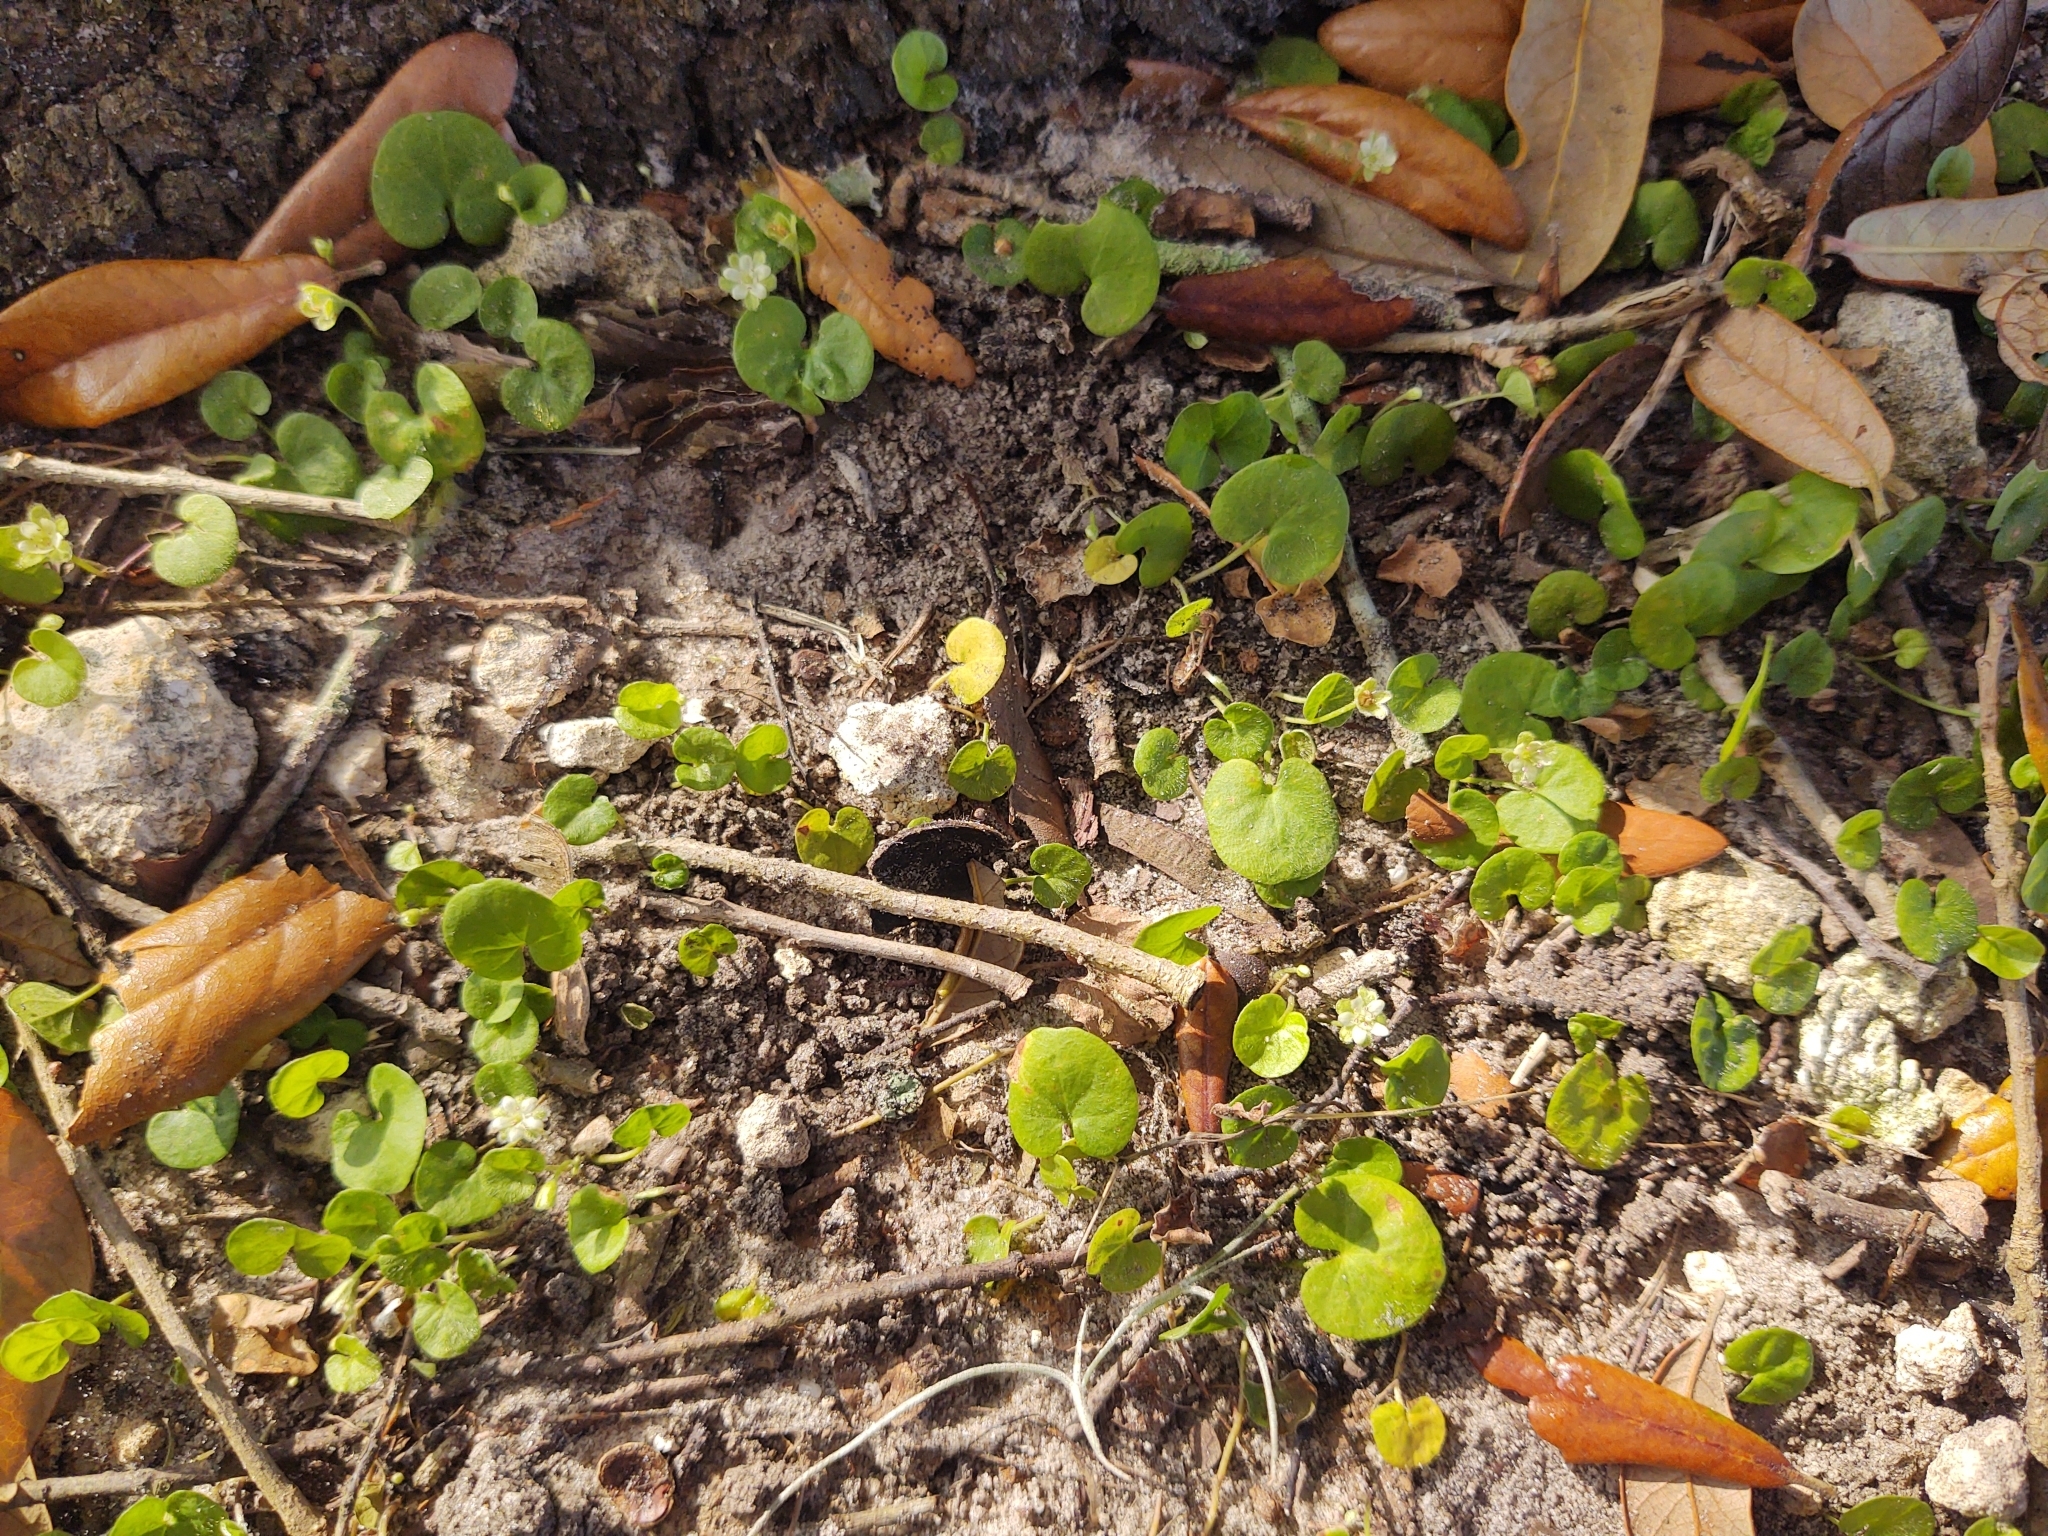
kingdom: Plantae
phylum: Tracheophyta
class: Magnoliopsida
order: Solanales
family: Convolvulaceae
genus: Dichondra
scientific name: Dichondra carolinensis
